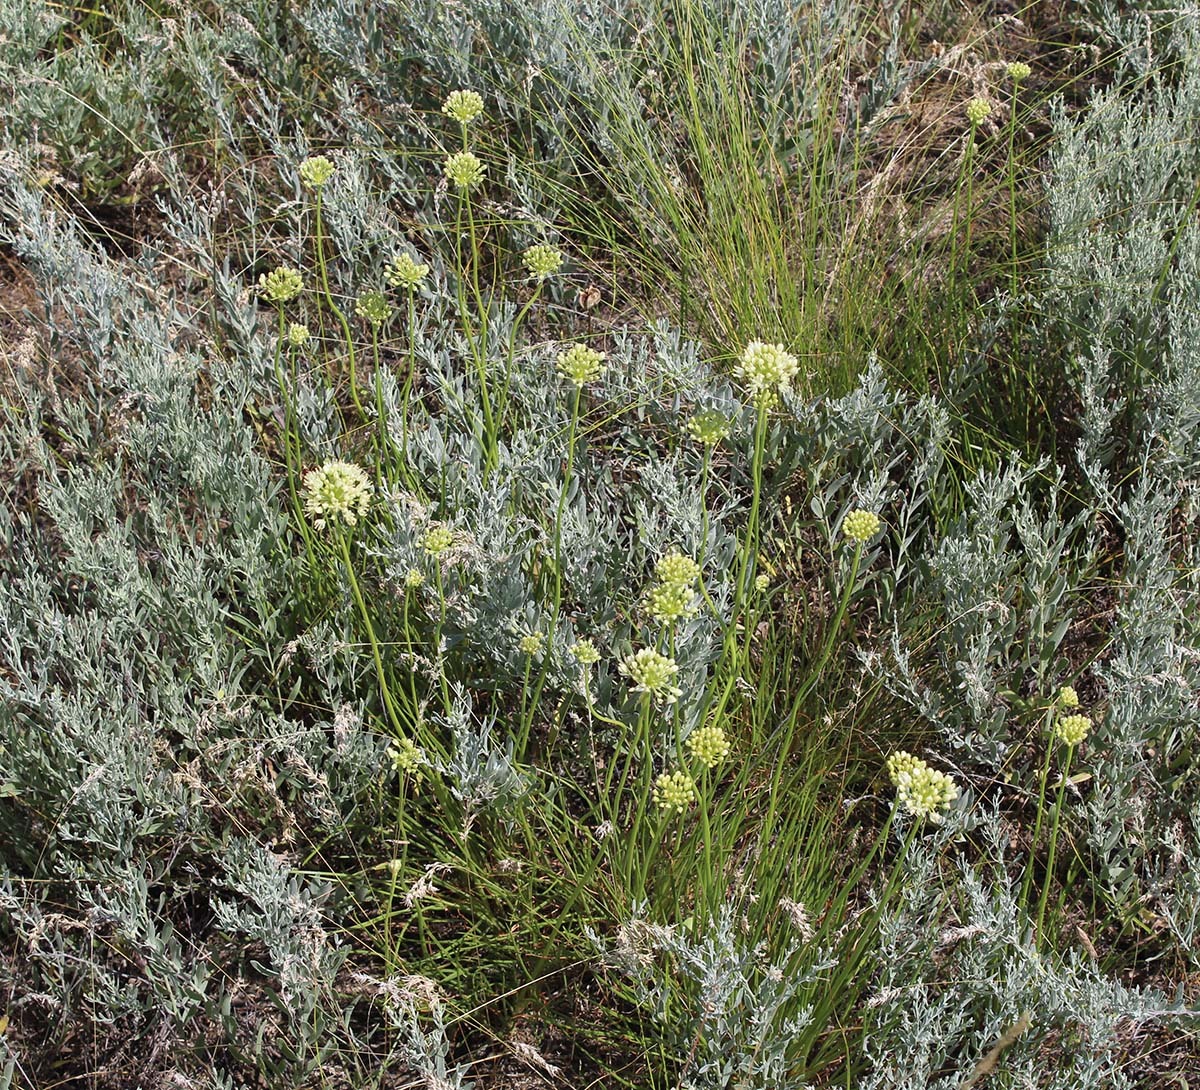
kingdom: Plantae
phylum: Tracheophyta
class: Liliopsida
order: Asparagales
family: Amaryllidaceae
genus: Allium
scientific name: Allium flavescens
